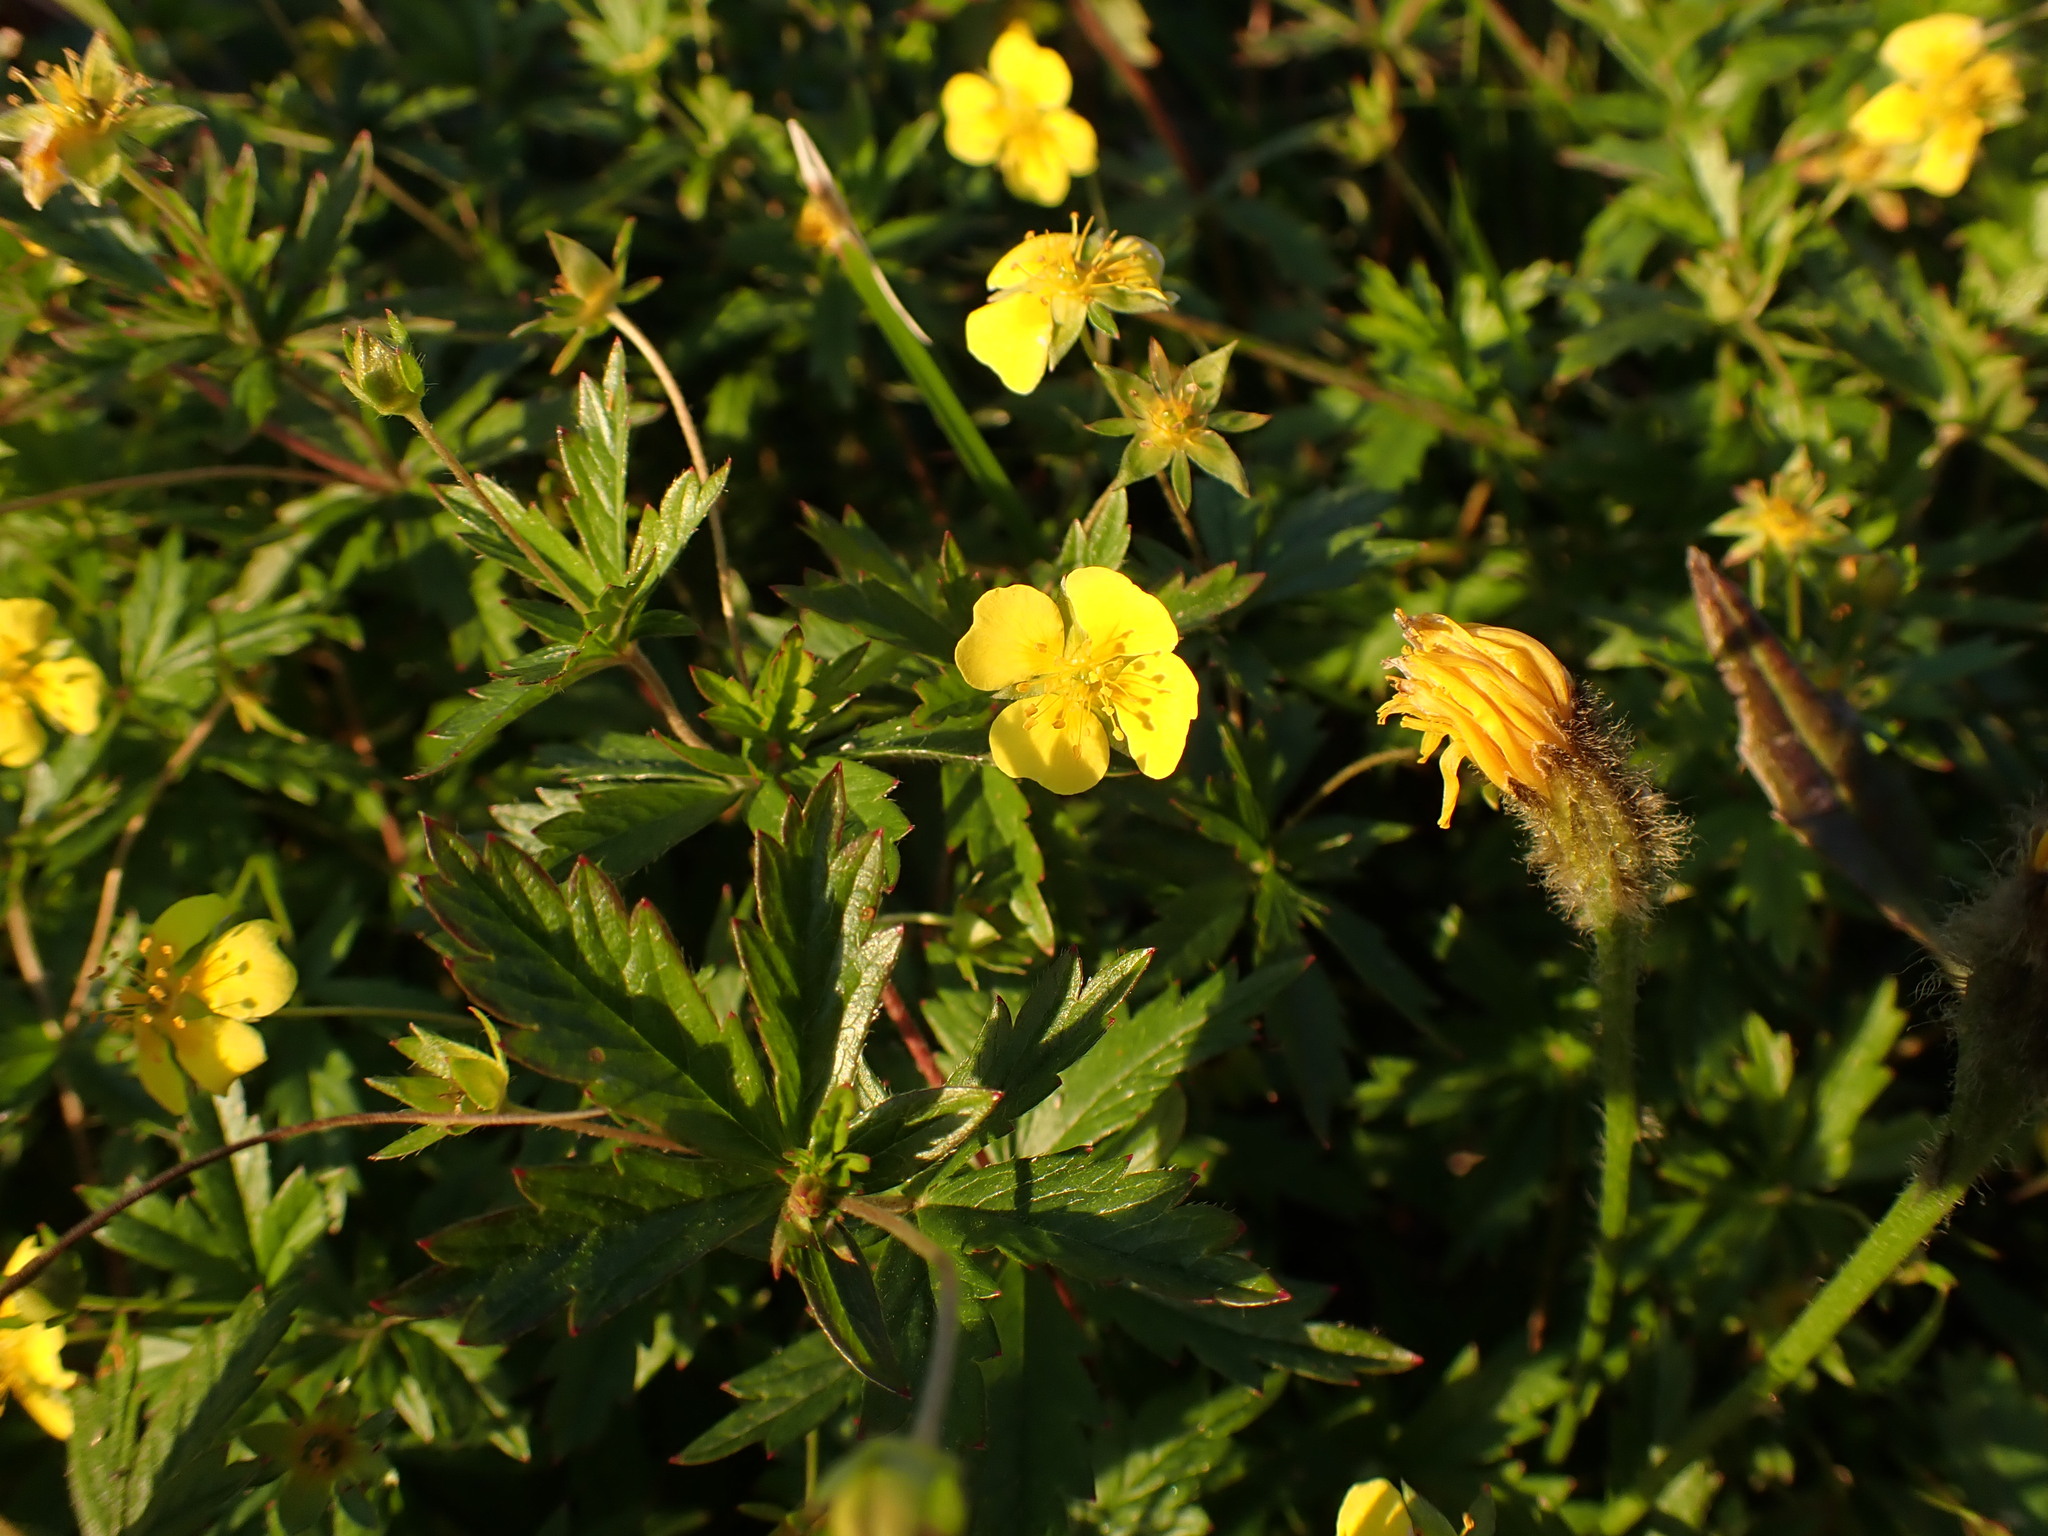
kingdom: Plantae
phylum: Tracheophyta
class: Magnoliopsida
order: Rosales
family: Rosaceae
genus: Potentilla
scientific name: Potentilla erecta
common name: Tormentil
